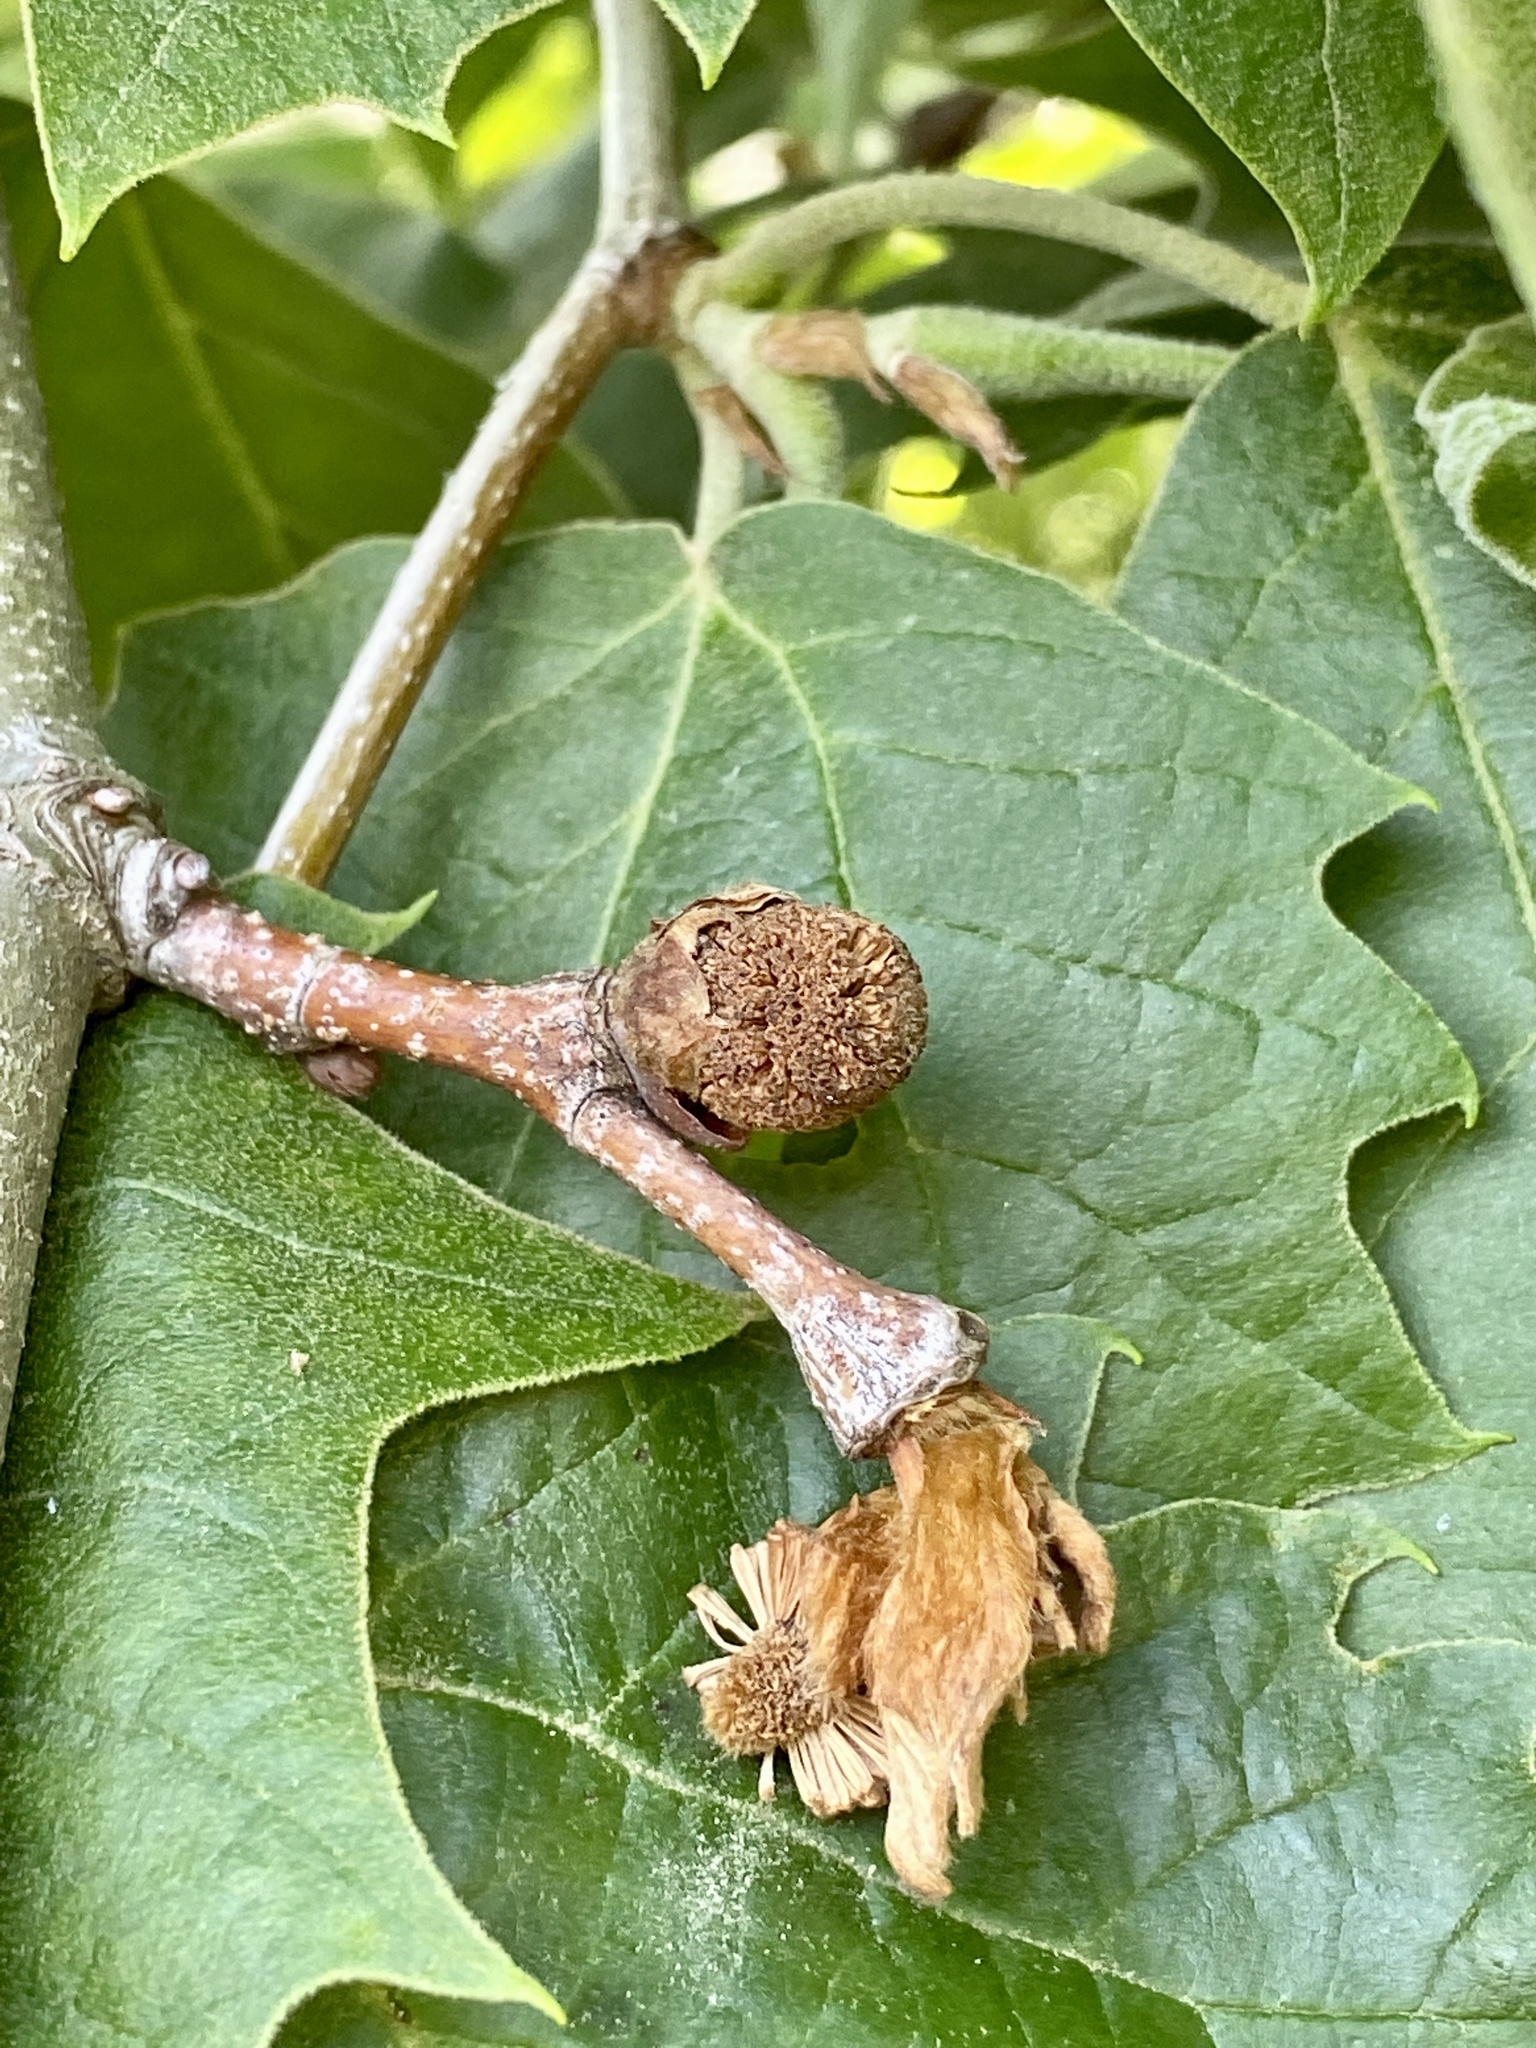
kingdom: Plantae
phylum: Tracheophyta
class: Magnoliopsida
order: Proteales
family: Platanaceae
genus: Platanus
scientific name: Platanus occidentalis
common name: American sycamore
